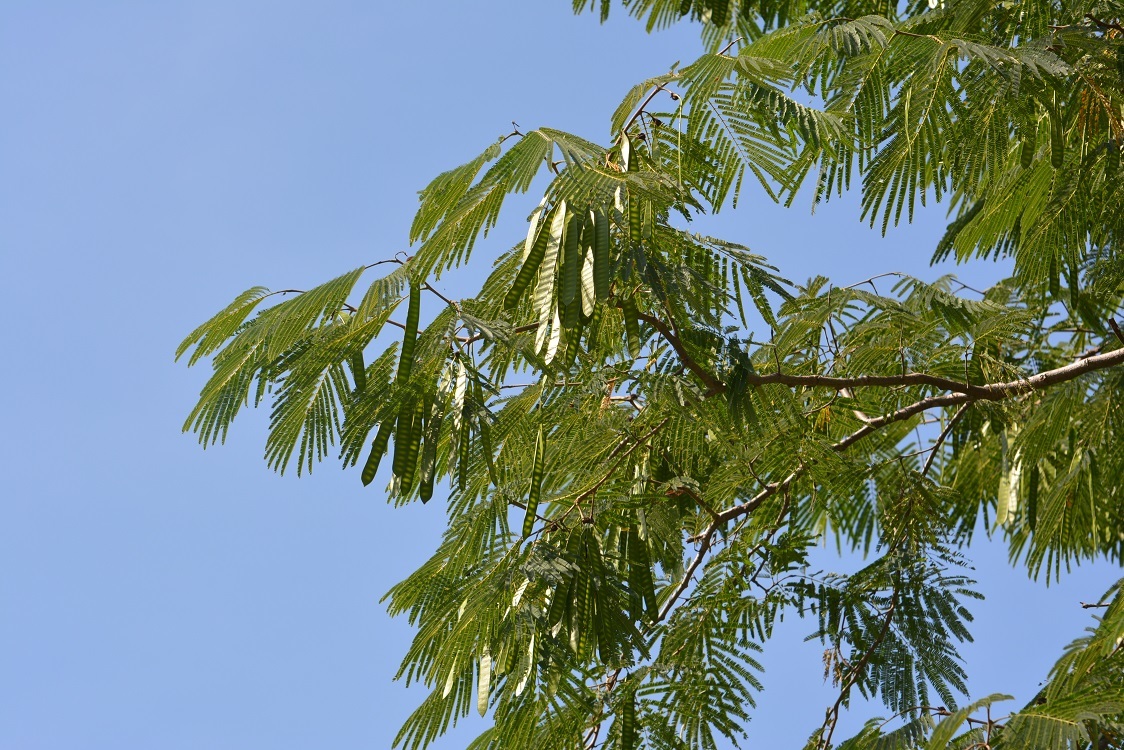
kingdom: Plantae
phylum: Tracheophyta
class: Magnoliopsida
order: Fabales
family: Fabaceae
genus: Leucaena
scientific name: Leucaena diversifolia
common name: Red leucaena
